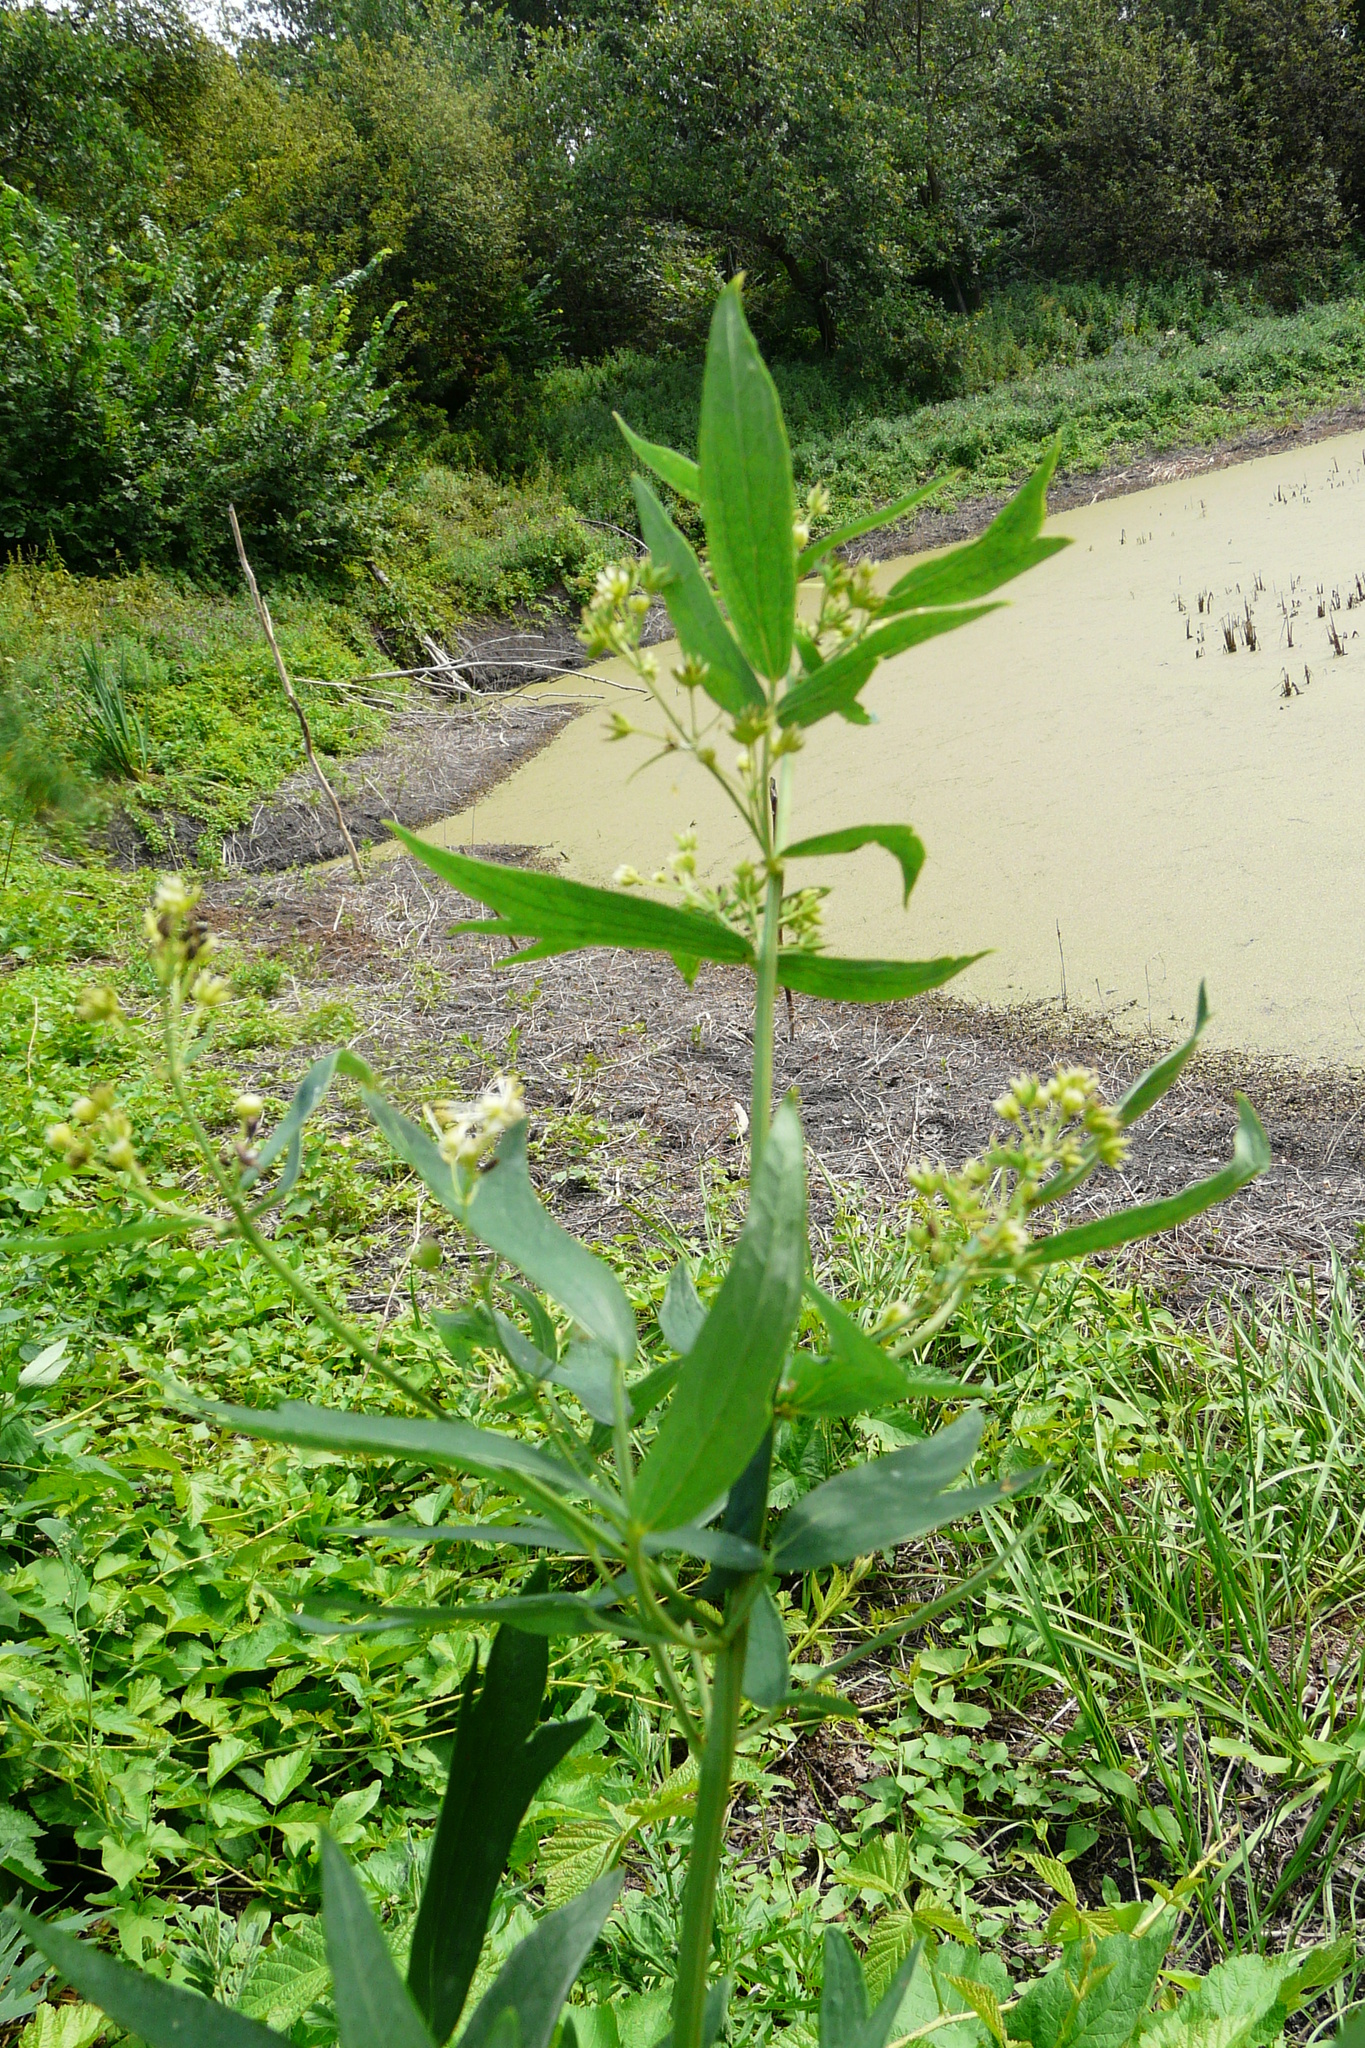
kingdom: Plantae
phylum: Tracheophyta
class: Magnoliopsida
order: Caryophyllales
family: Amaranthaceae
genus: Chenopodiastrum
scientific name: Chenopodiastrum hybridum
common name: Mapleleaf goosefoot
